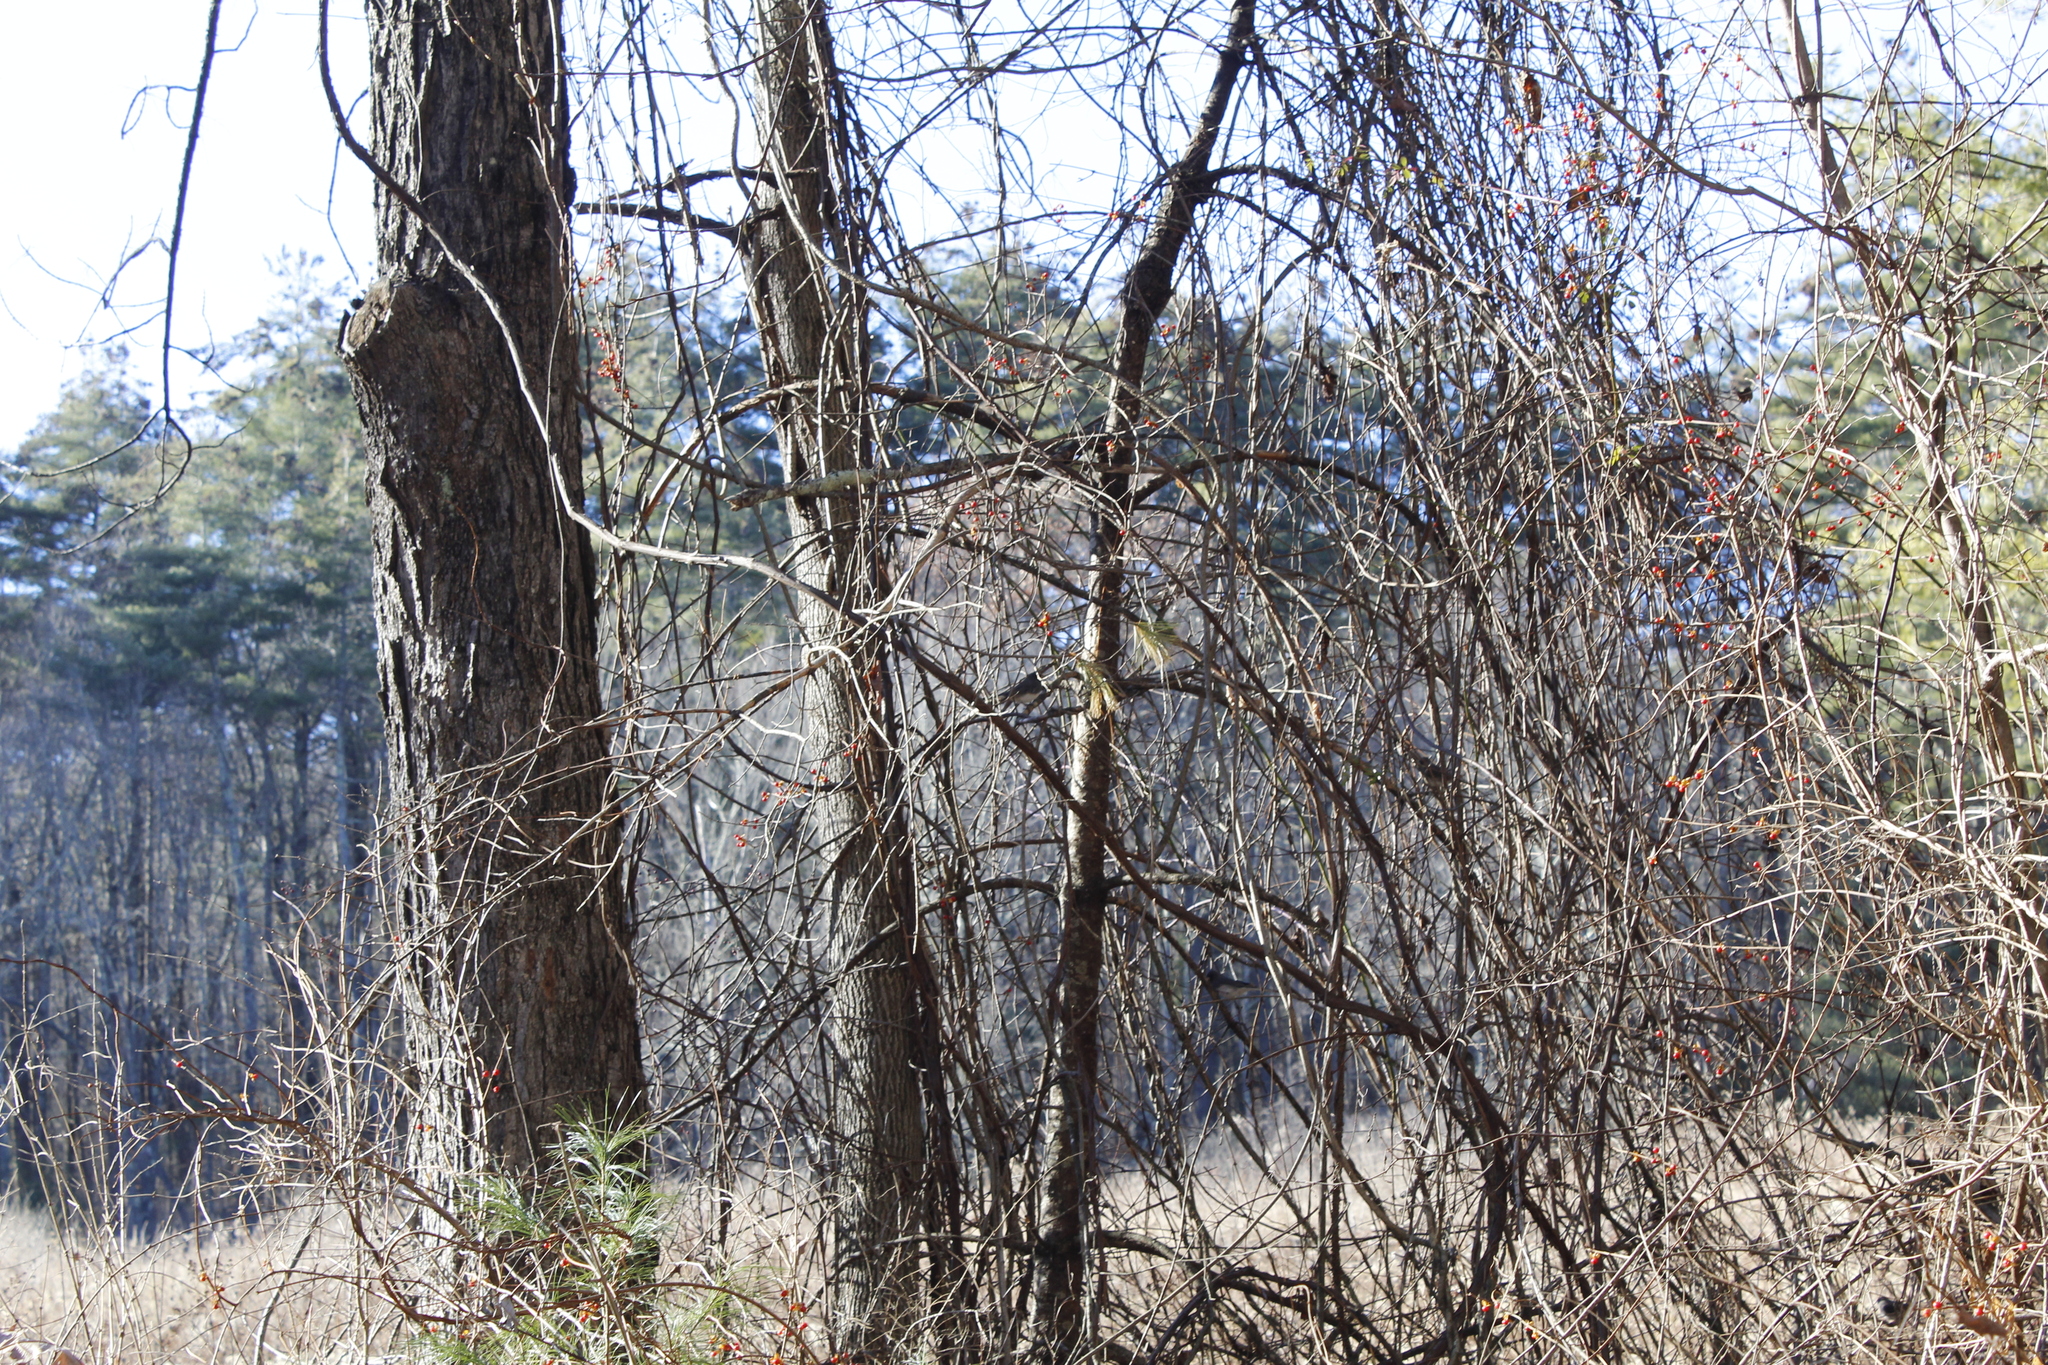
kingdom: Animalia
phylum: Chordata
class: Aves
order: Passeriformes
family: Passerellidae
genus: Junco
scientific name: Junco hyemalis
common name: Dark-eyed junco
